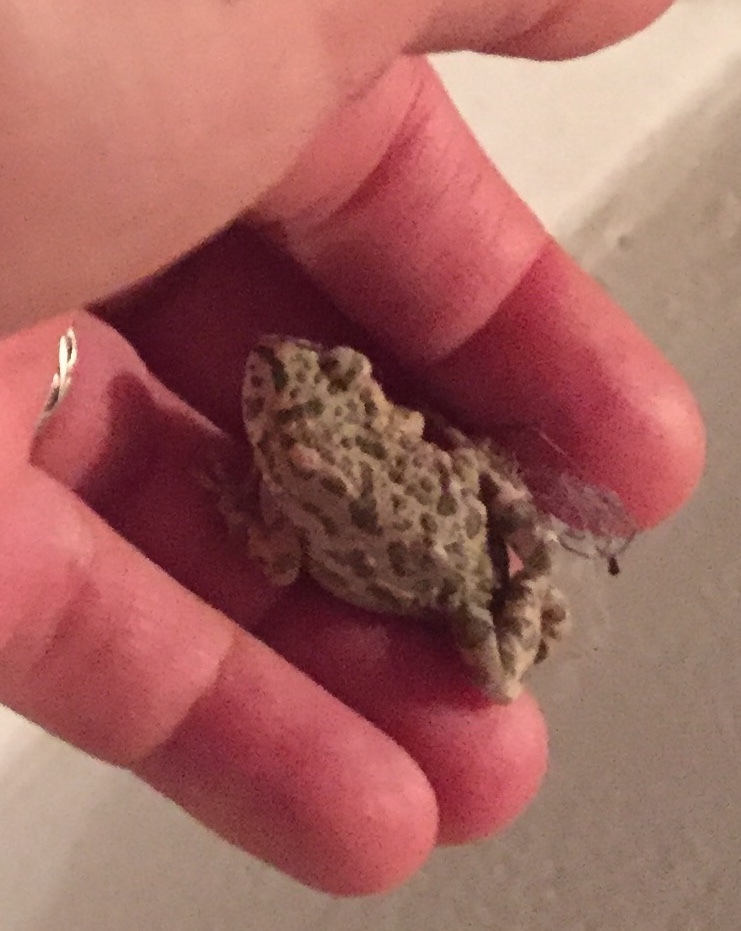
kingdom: Animalia
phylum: Chordata
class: Amphibia
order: Anura
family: Bufonidae
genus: Bufotes
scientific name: Bufotes viridis
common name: European green toad
